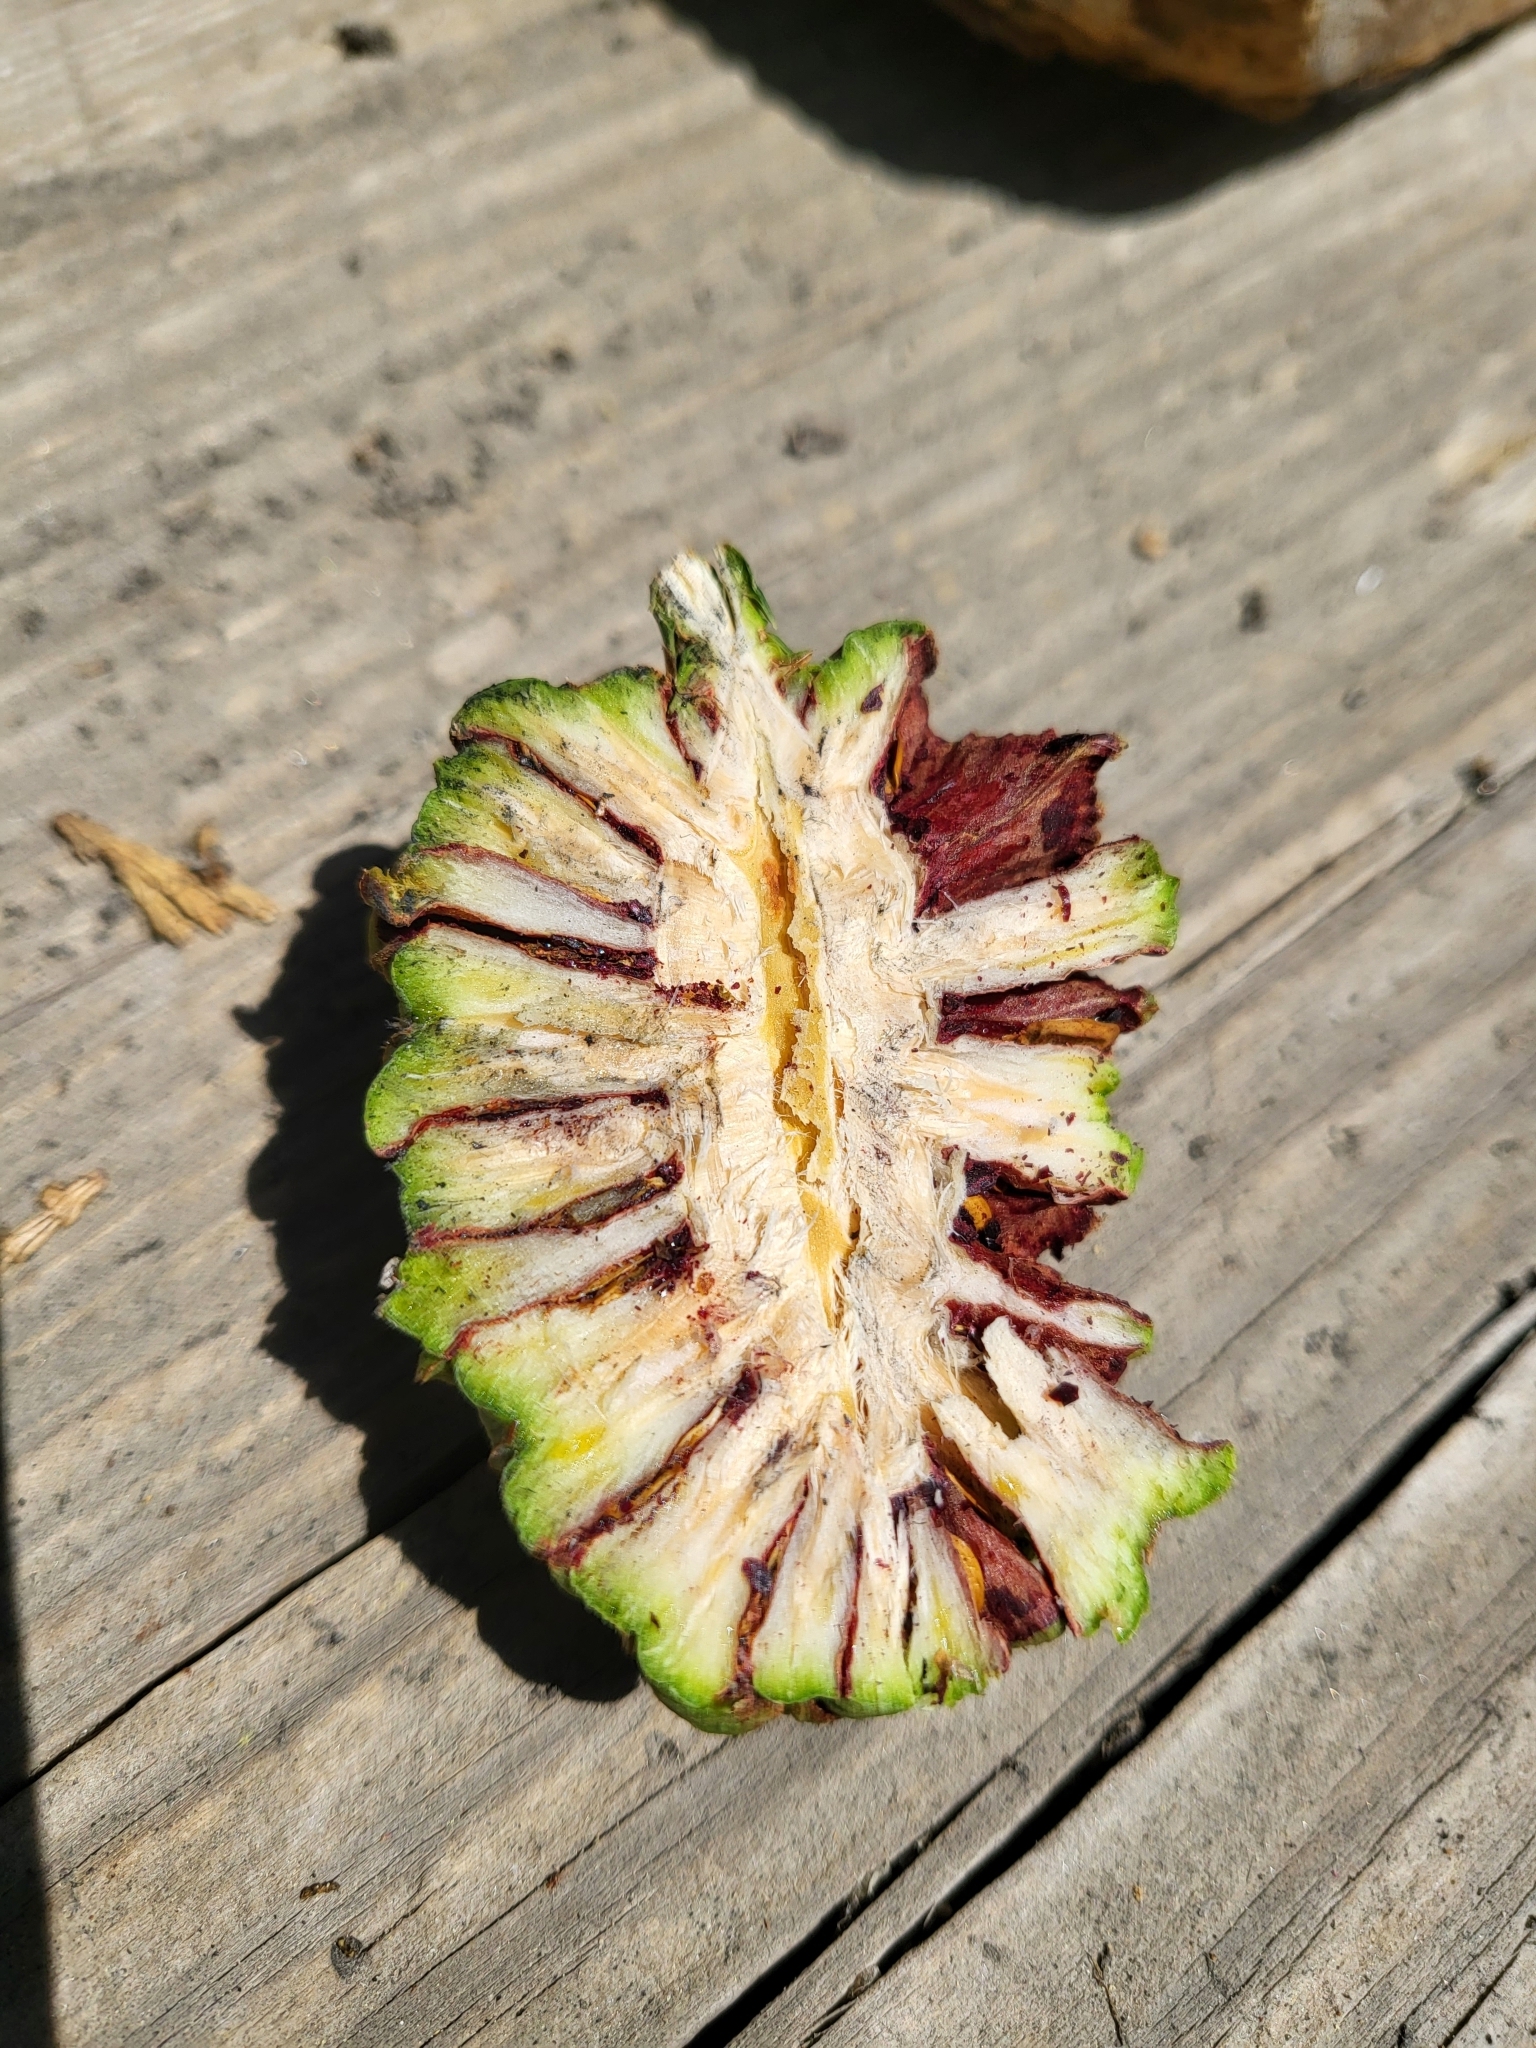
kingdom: Plantae
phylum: Tracheophyta
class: Pinopsida
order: Pinales
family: Cupressaceae
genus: Sequoiadendron
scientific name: Sequoiadendron giganteum
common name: Wellingtonia
